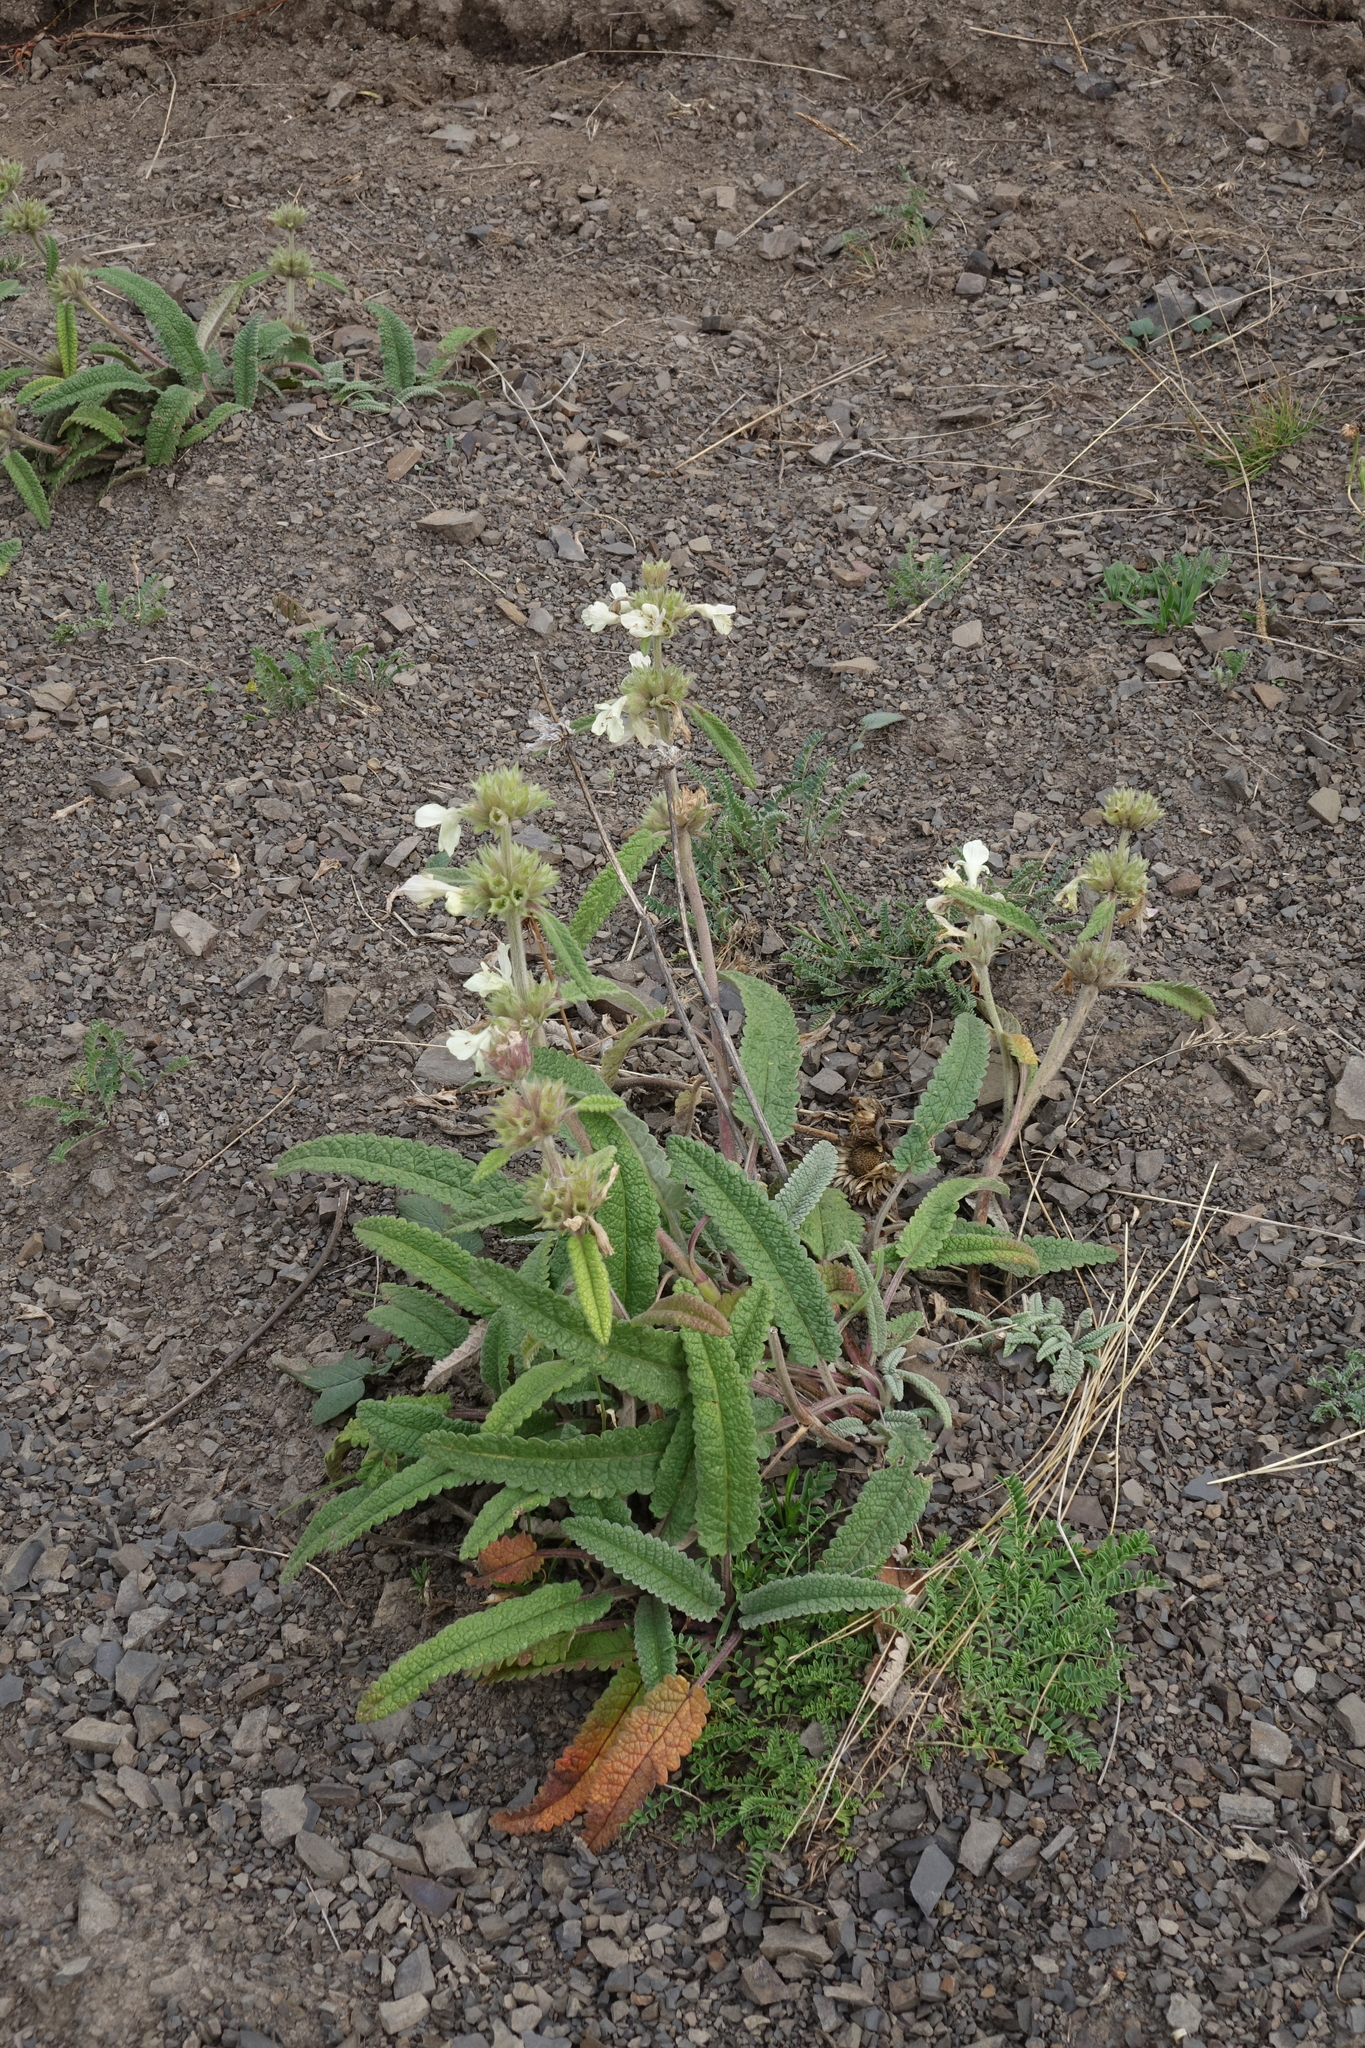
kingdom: Plantae
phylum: Tracheophyta
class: Magnoliopsida
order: Lamiales
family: Lamiaceae
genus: Betonica
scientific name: Betonica nivea
